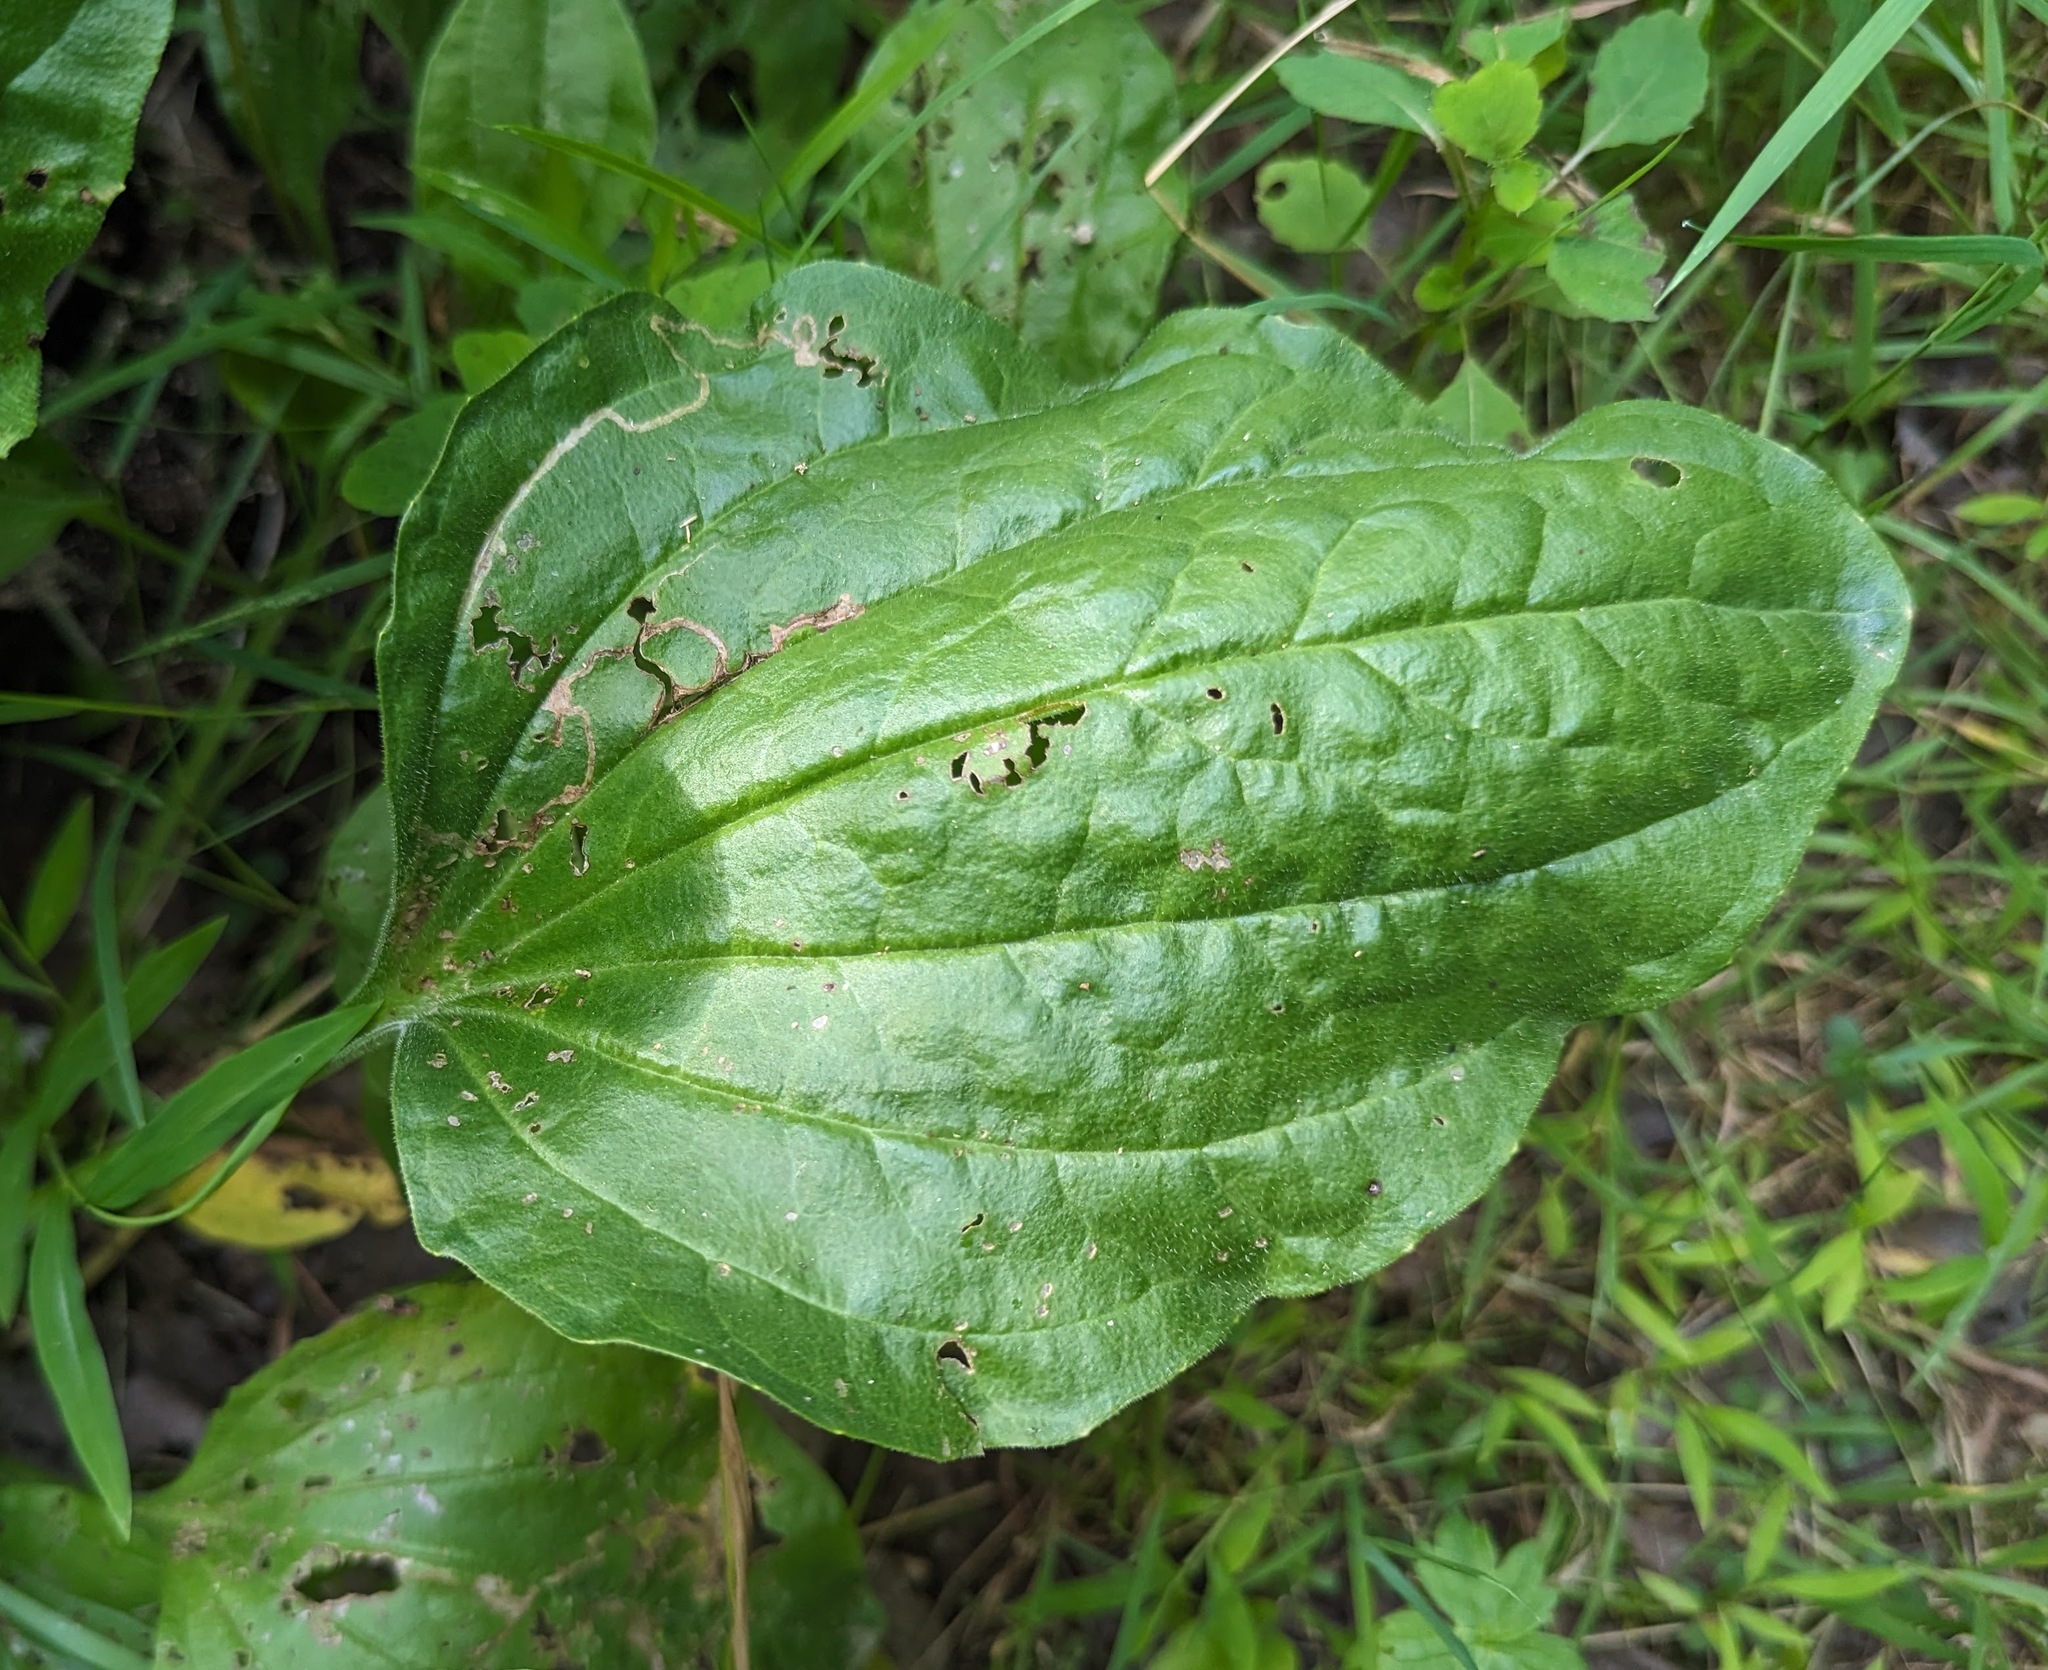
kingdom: Plantae
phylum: Tracheophyta
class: Magnoliopsida
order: Lamiales
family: Plantaginaceae
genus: Plantago
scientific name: Plantago major
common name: Common plantain
